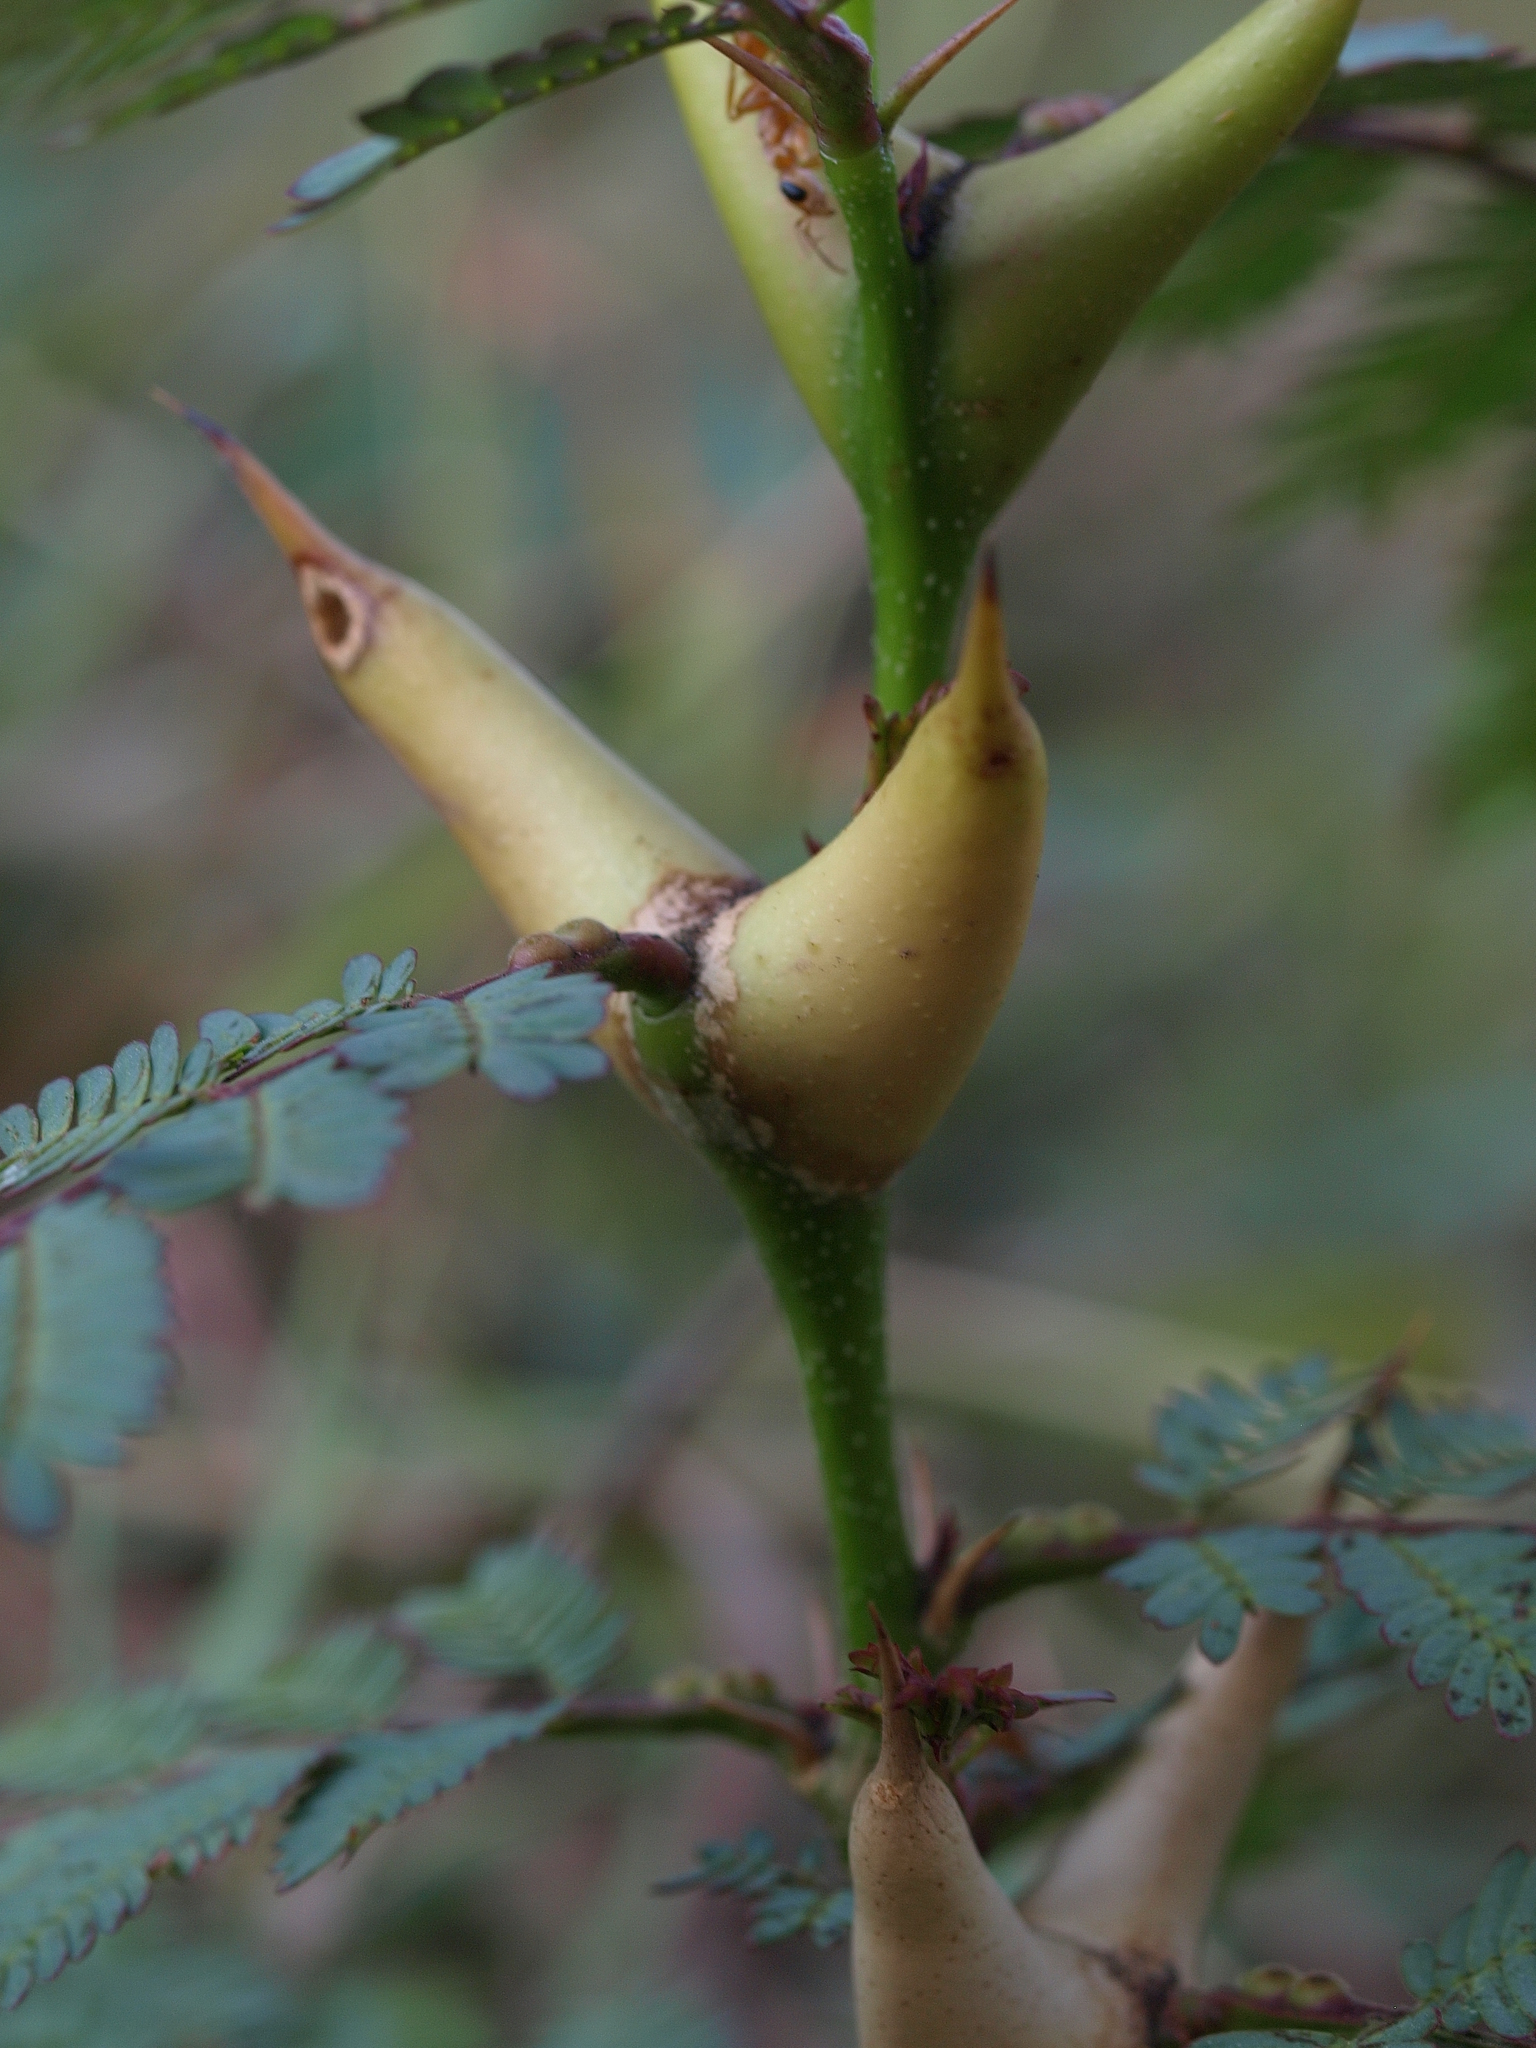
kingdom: Plantae
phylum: Tracheophyta
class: Magnoliopsida
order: Fabales
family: Fabaceae
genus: Vachellia
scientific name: Vachellia collinsii
